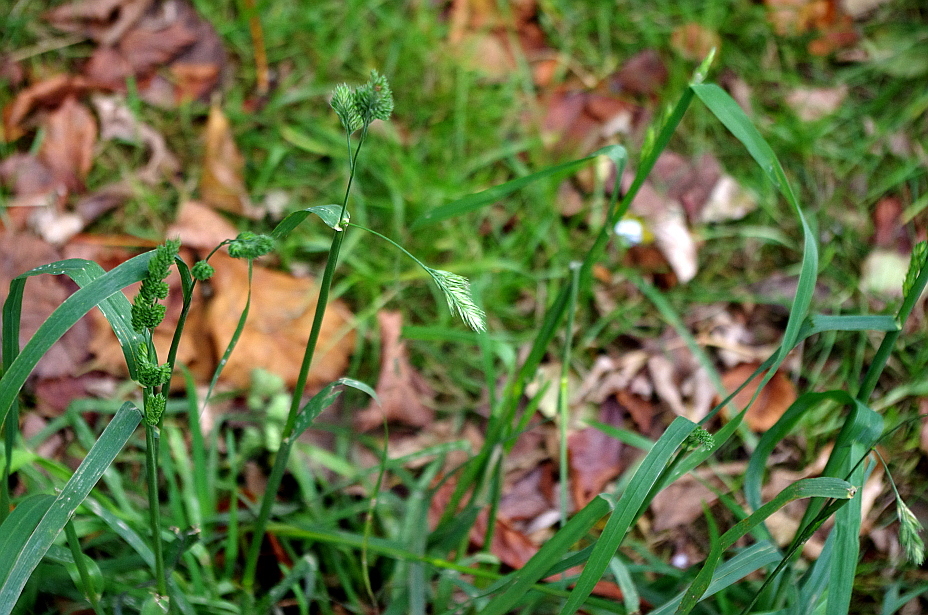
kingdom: Plantae
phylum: Tracheophyta
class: Liliopsida
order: Poales
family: Poaceae
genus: Dactylis
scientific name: Dactylis glomerata
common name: Orchardgrass
